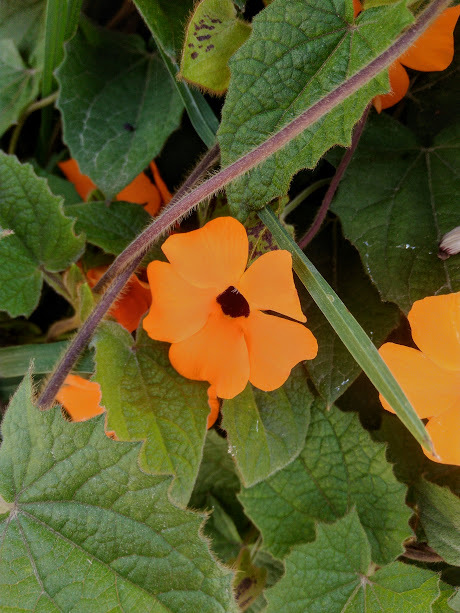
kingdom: Plantae
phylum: Tracheophyta
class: Magnoliopsida
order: Lamiales
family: Acanthaceae
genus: Thunbergia
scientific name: Thunbergia alata
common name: Blackeyed susan vine
